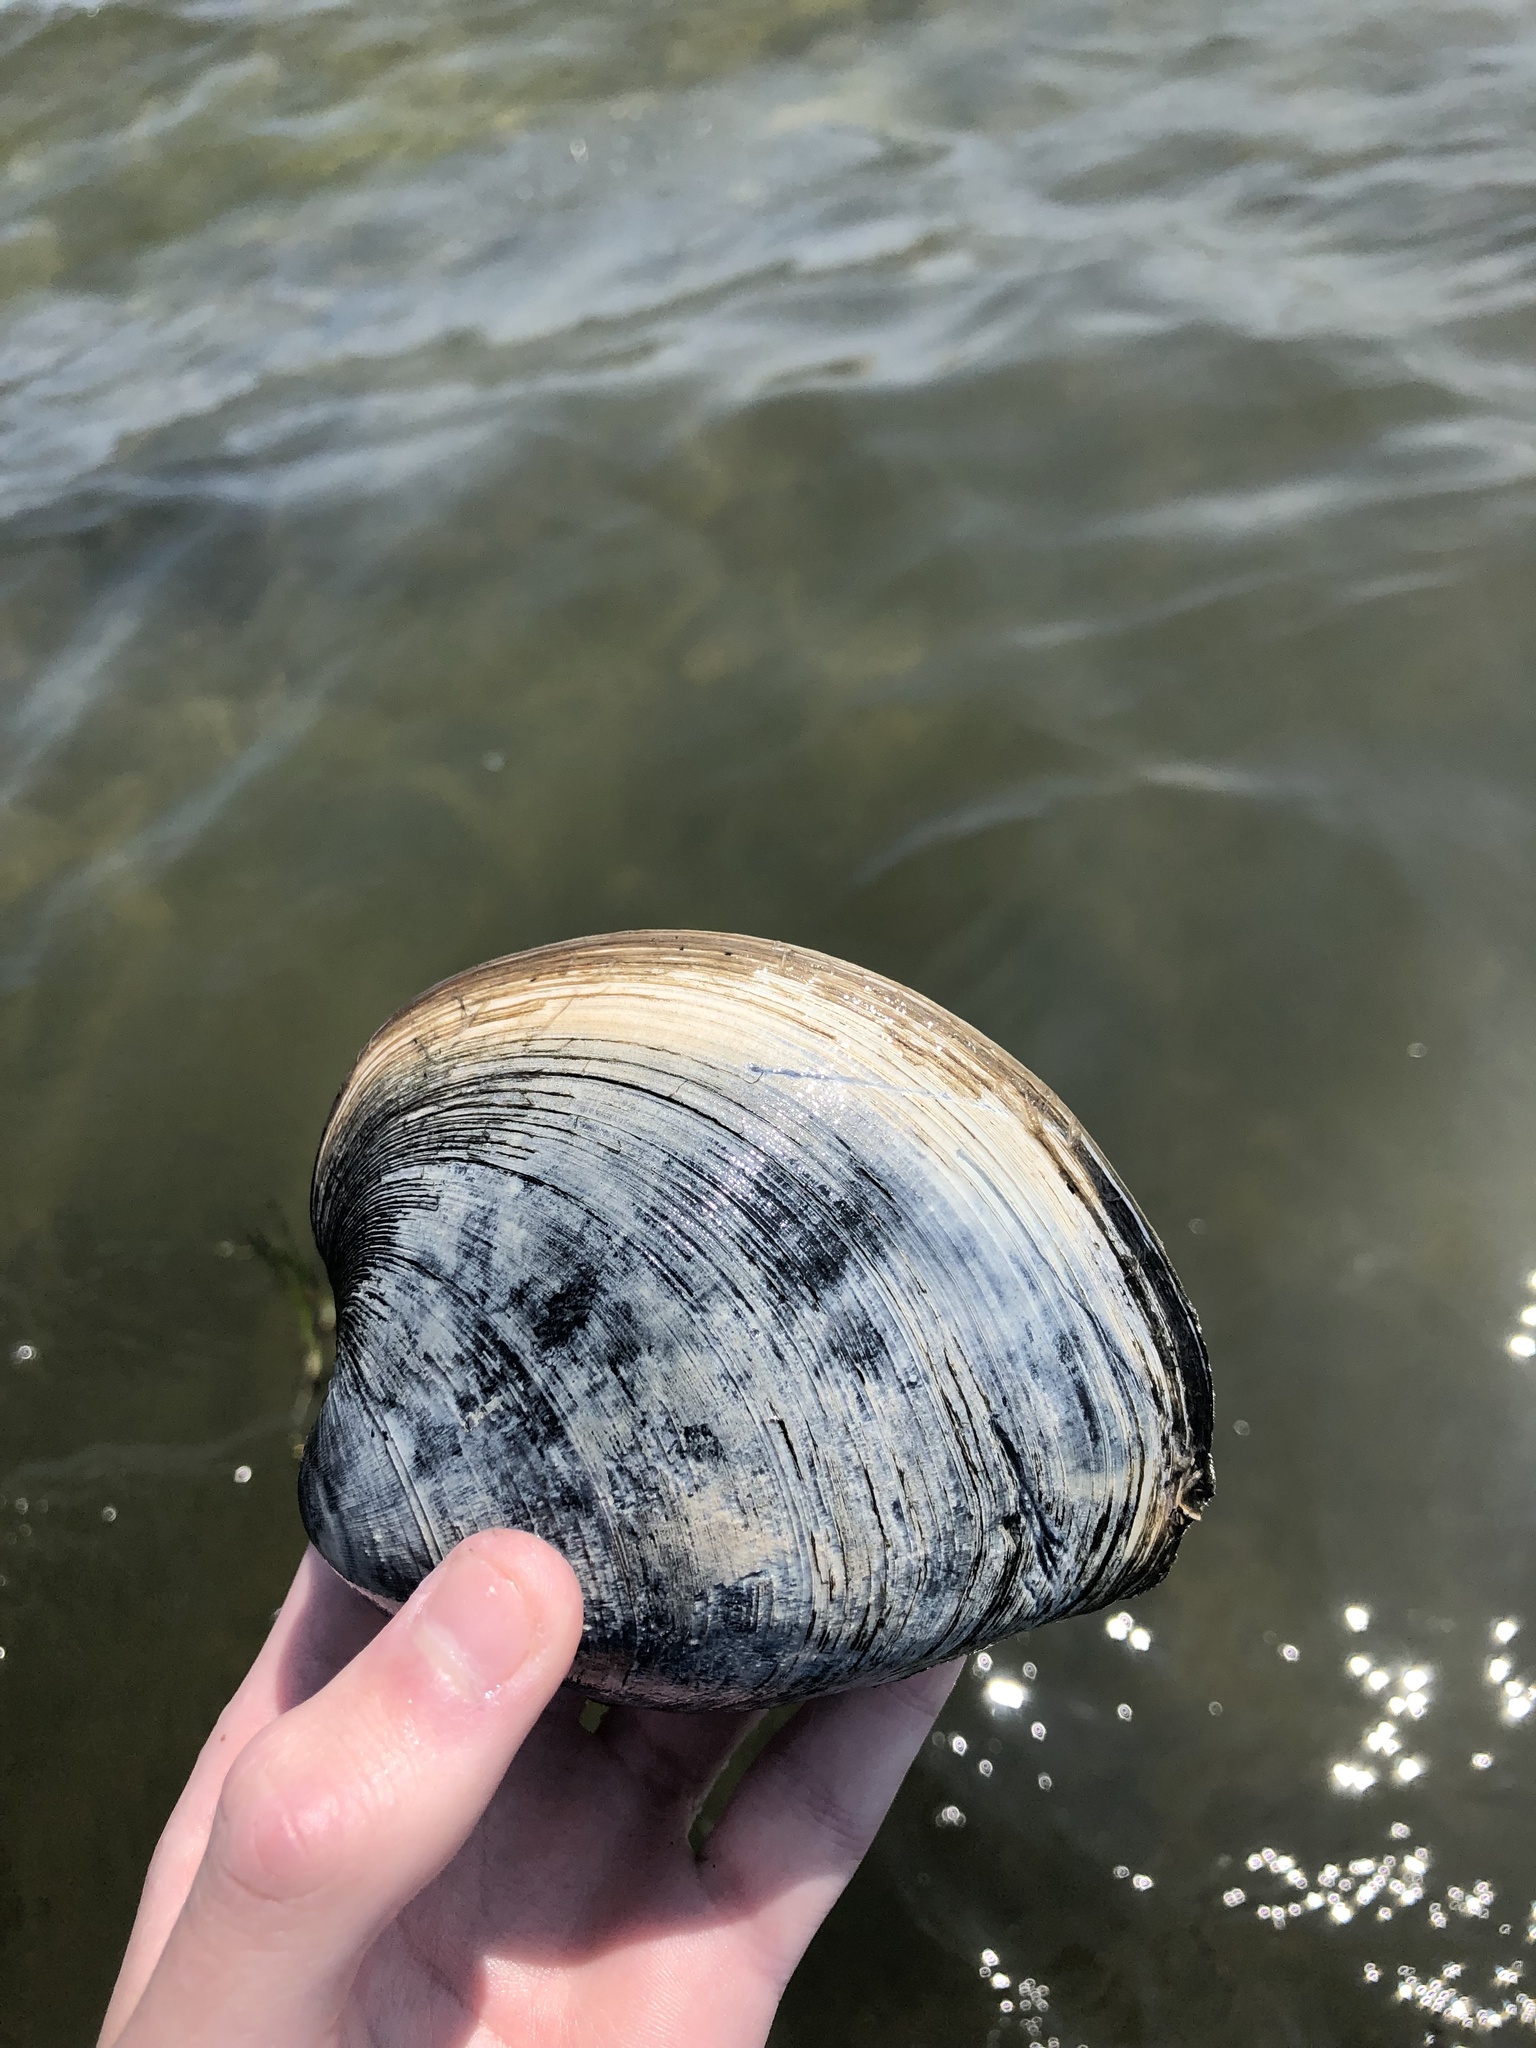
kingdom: Animalia
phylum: Mollusca
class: Bivalvia
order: Venerida
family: Veneridae
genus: Mercenaria
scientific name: Mercenaria mercenaria
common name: American hard-shelled clam
